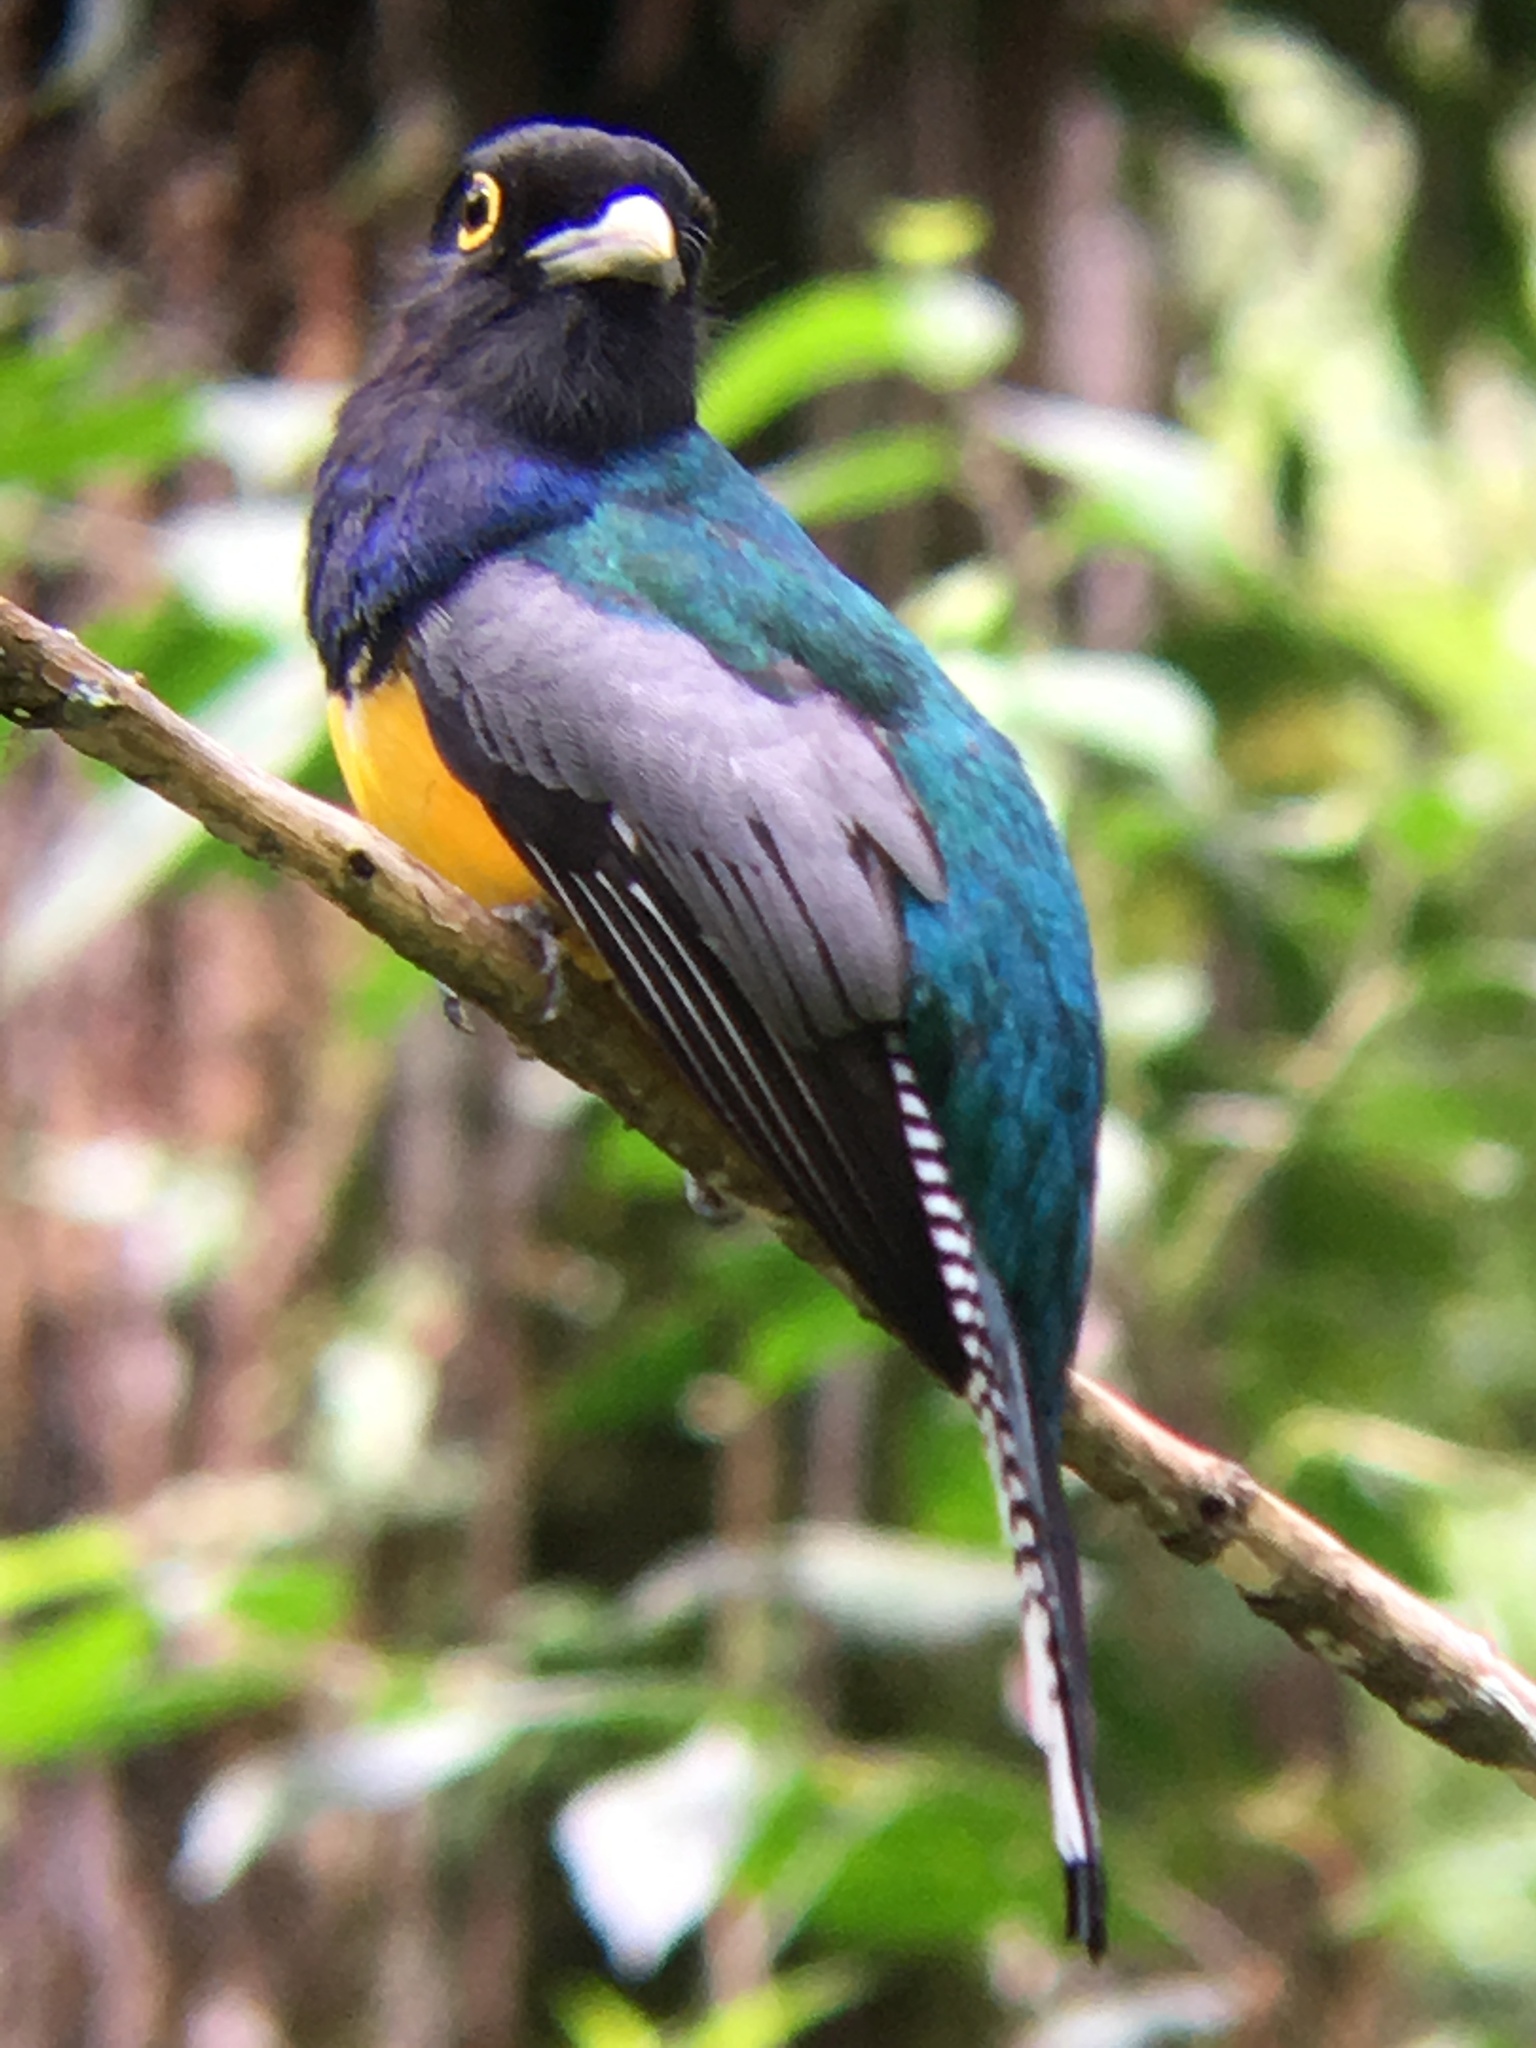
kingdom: Animalia
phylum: Chordata
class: Aves
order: Trogoniformes
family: Trogonidae
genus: Trogon
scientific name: Trogon caligatus
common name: Gartered trogon
